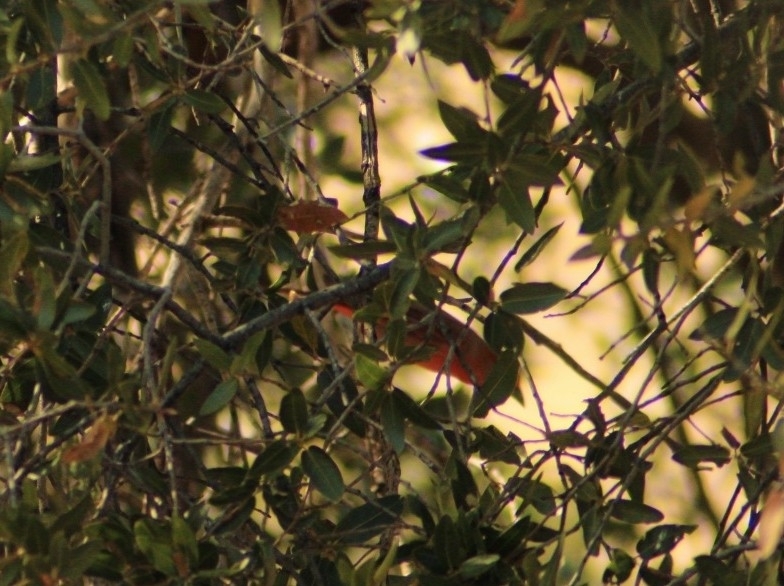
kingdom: Animalia
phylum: Chordata
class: Aves
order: Passeriformes
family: Cardinalidae
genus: Piranga
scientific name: Piranga flava
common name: Red tanager
